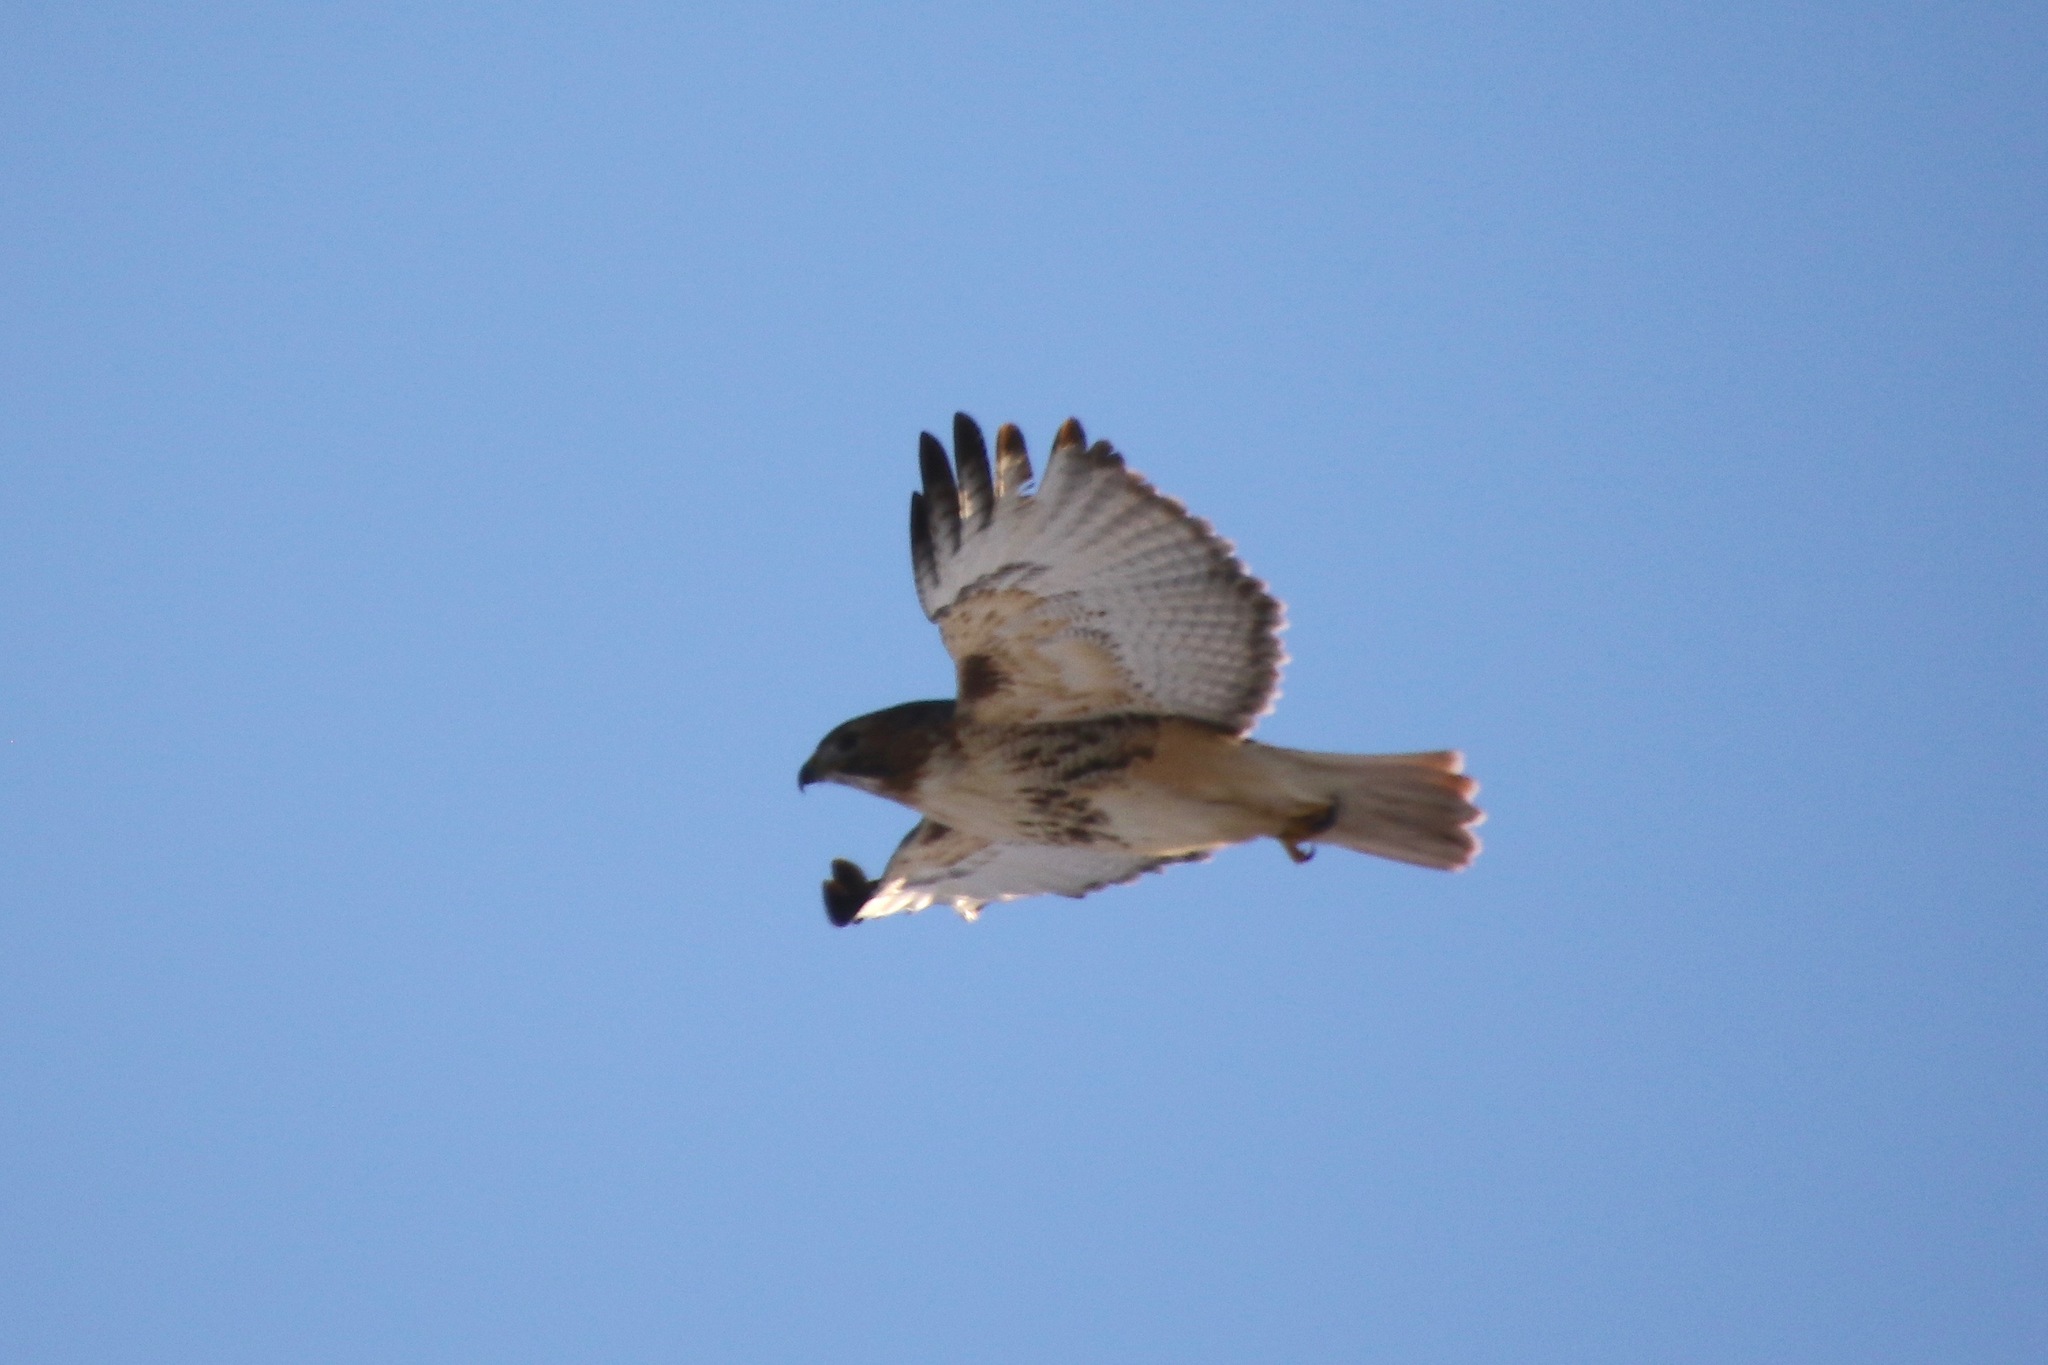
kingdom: Animalia
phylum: Chordata
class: Aves
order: Accipitriformes
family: Accipitridae
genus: Buteo
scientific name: Buteo jamaicensis
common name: Red-tailed hawk
